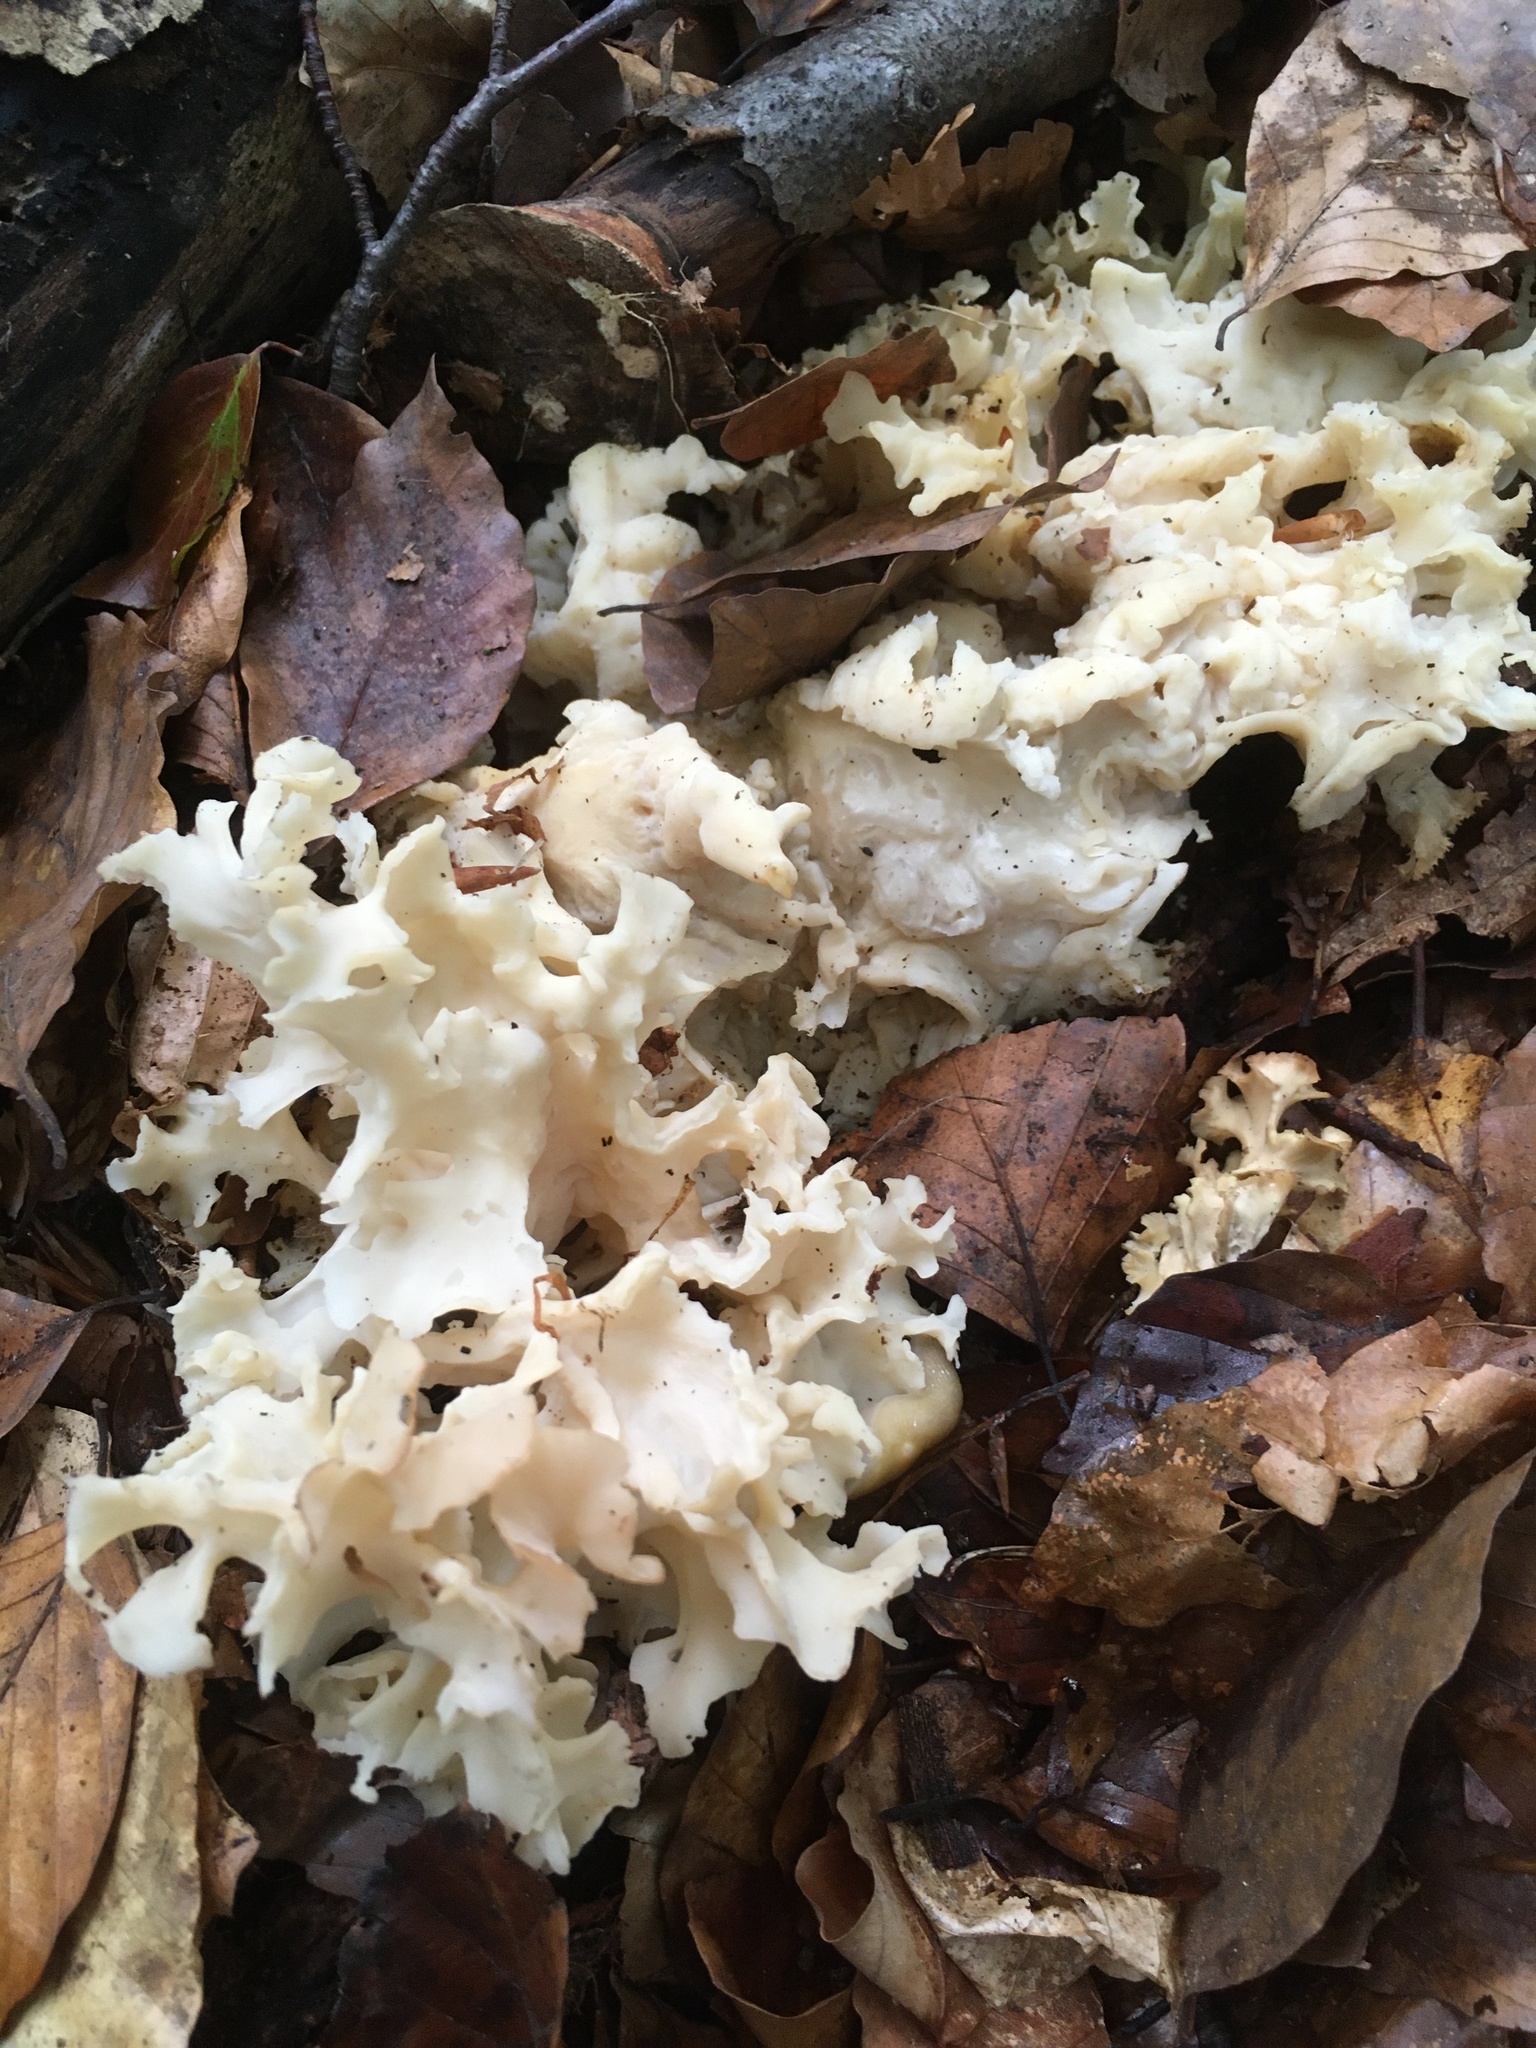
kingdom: Fungi
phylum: Basidiomycota
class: Agaricomycetes
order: Polyporales
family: Sparassidaceae
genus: Sparassis
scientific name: Sparassis crispa
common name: Brain fungus
